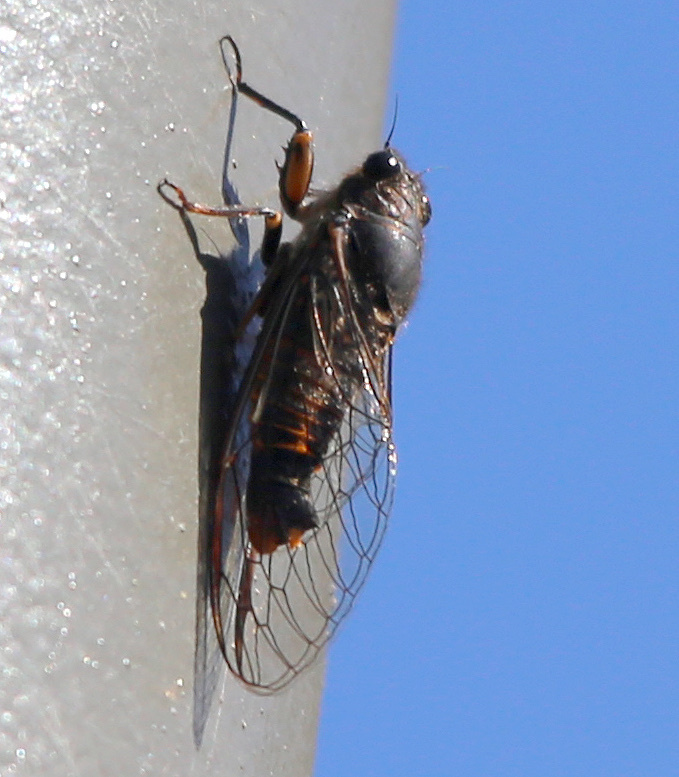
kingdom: Animalia
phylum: Arthropoda
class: Insecta
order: Hemiptera
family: Cicadidae
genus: Yoyetta
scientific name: Yoyetta robertsonae
